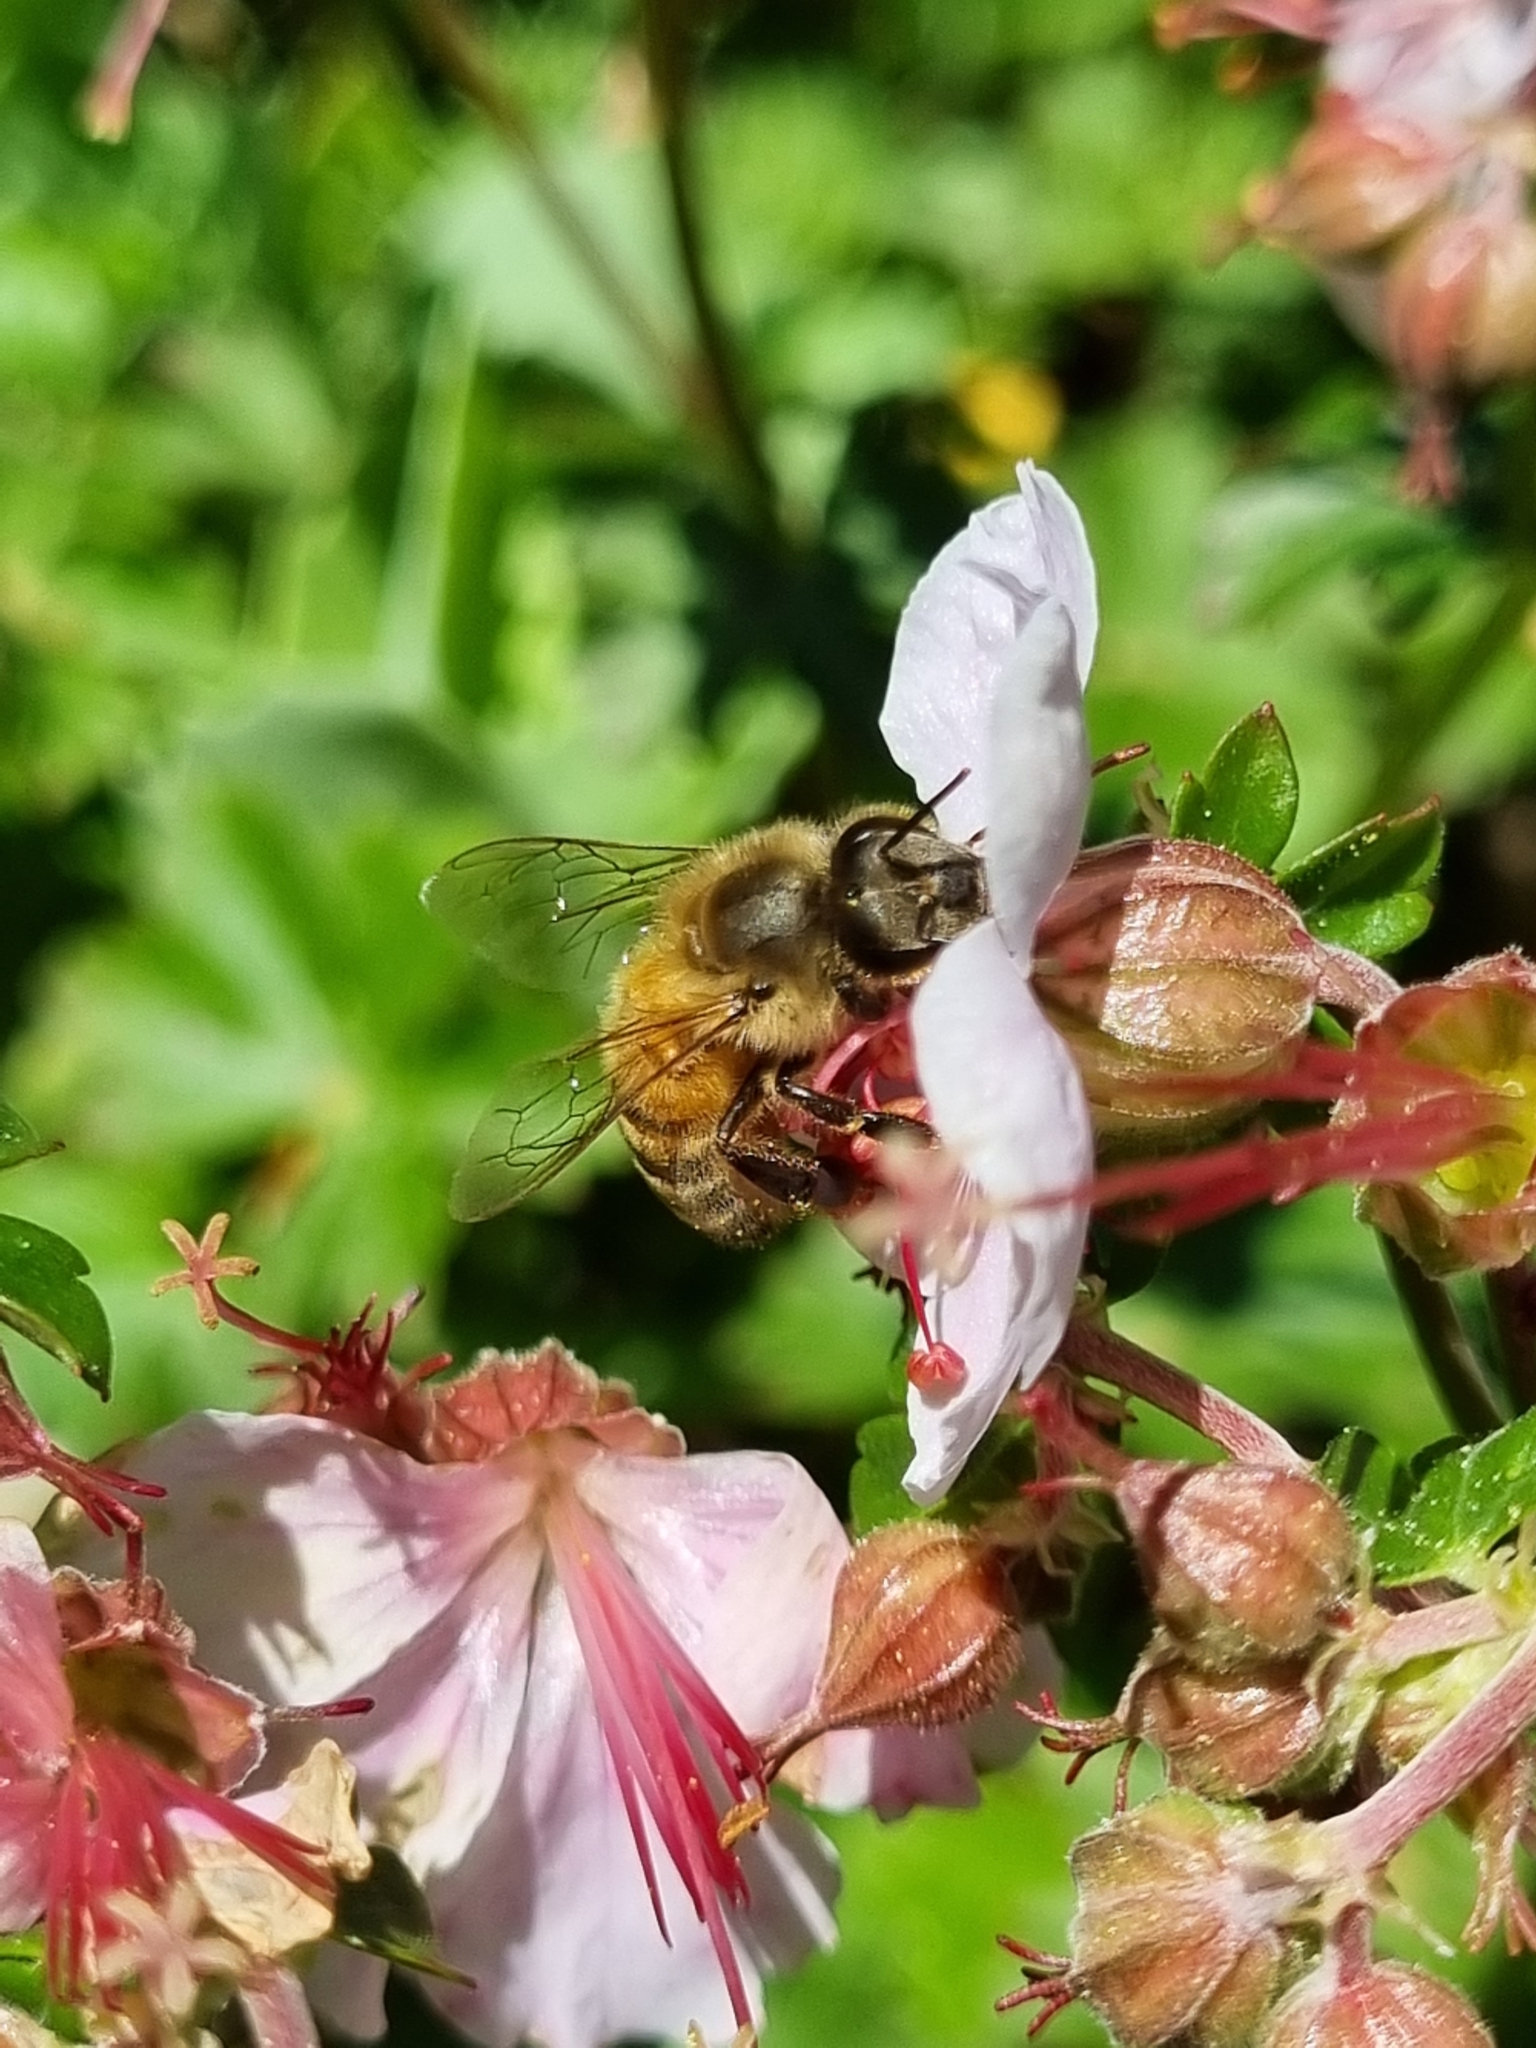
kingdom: Animalia
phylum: Arthropoda
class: Insecta
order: Hymenoptera
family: Apidae
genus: Apis
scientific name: Apis mellifera
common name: Honey bee
